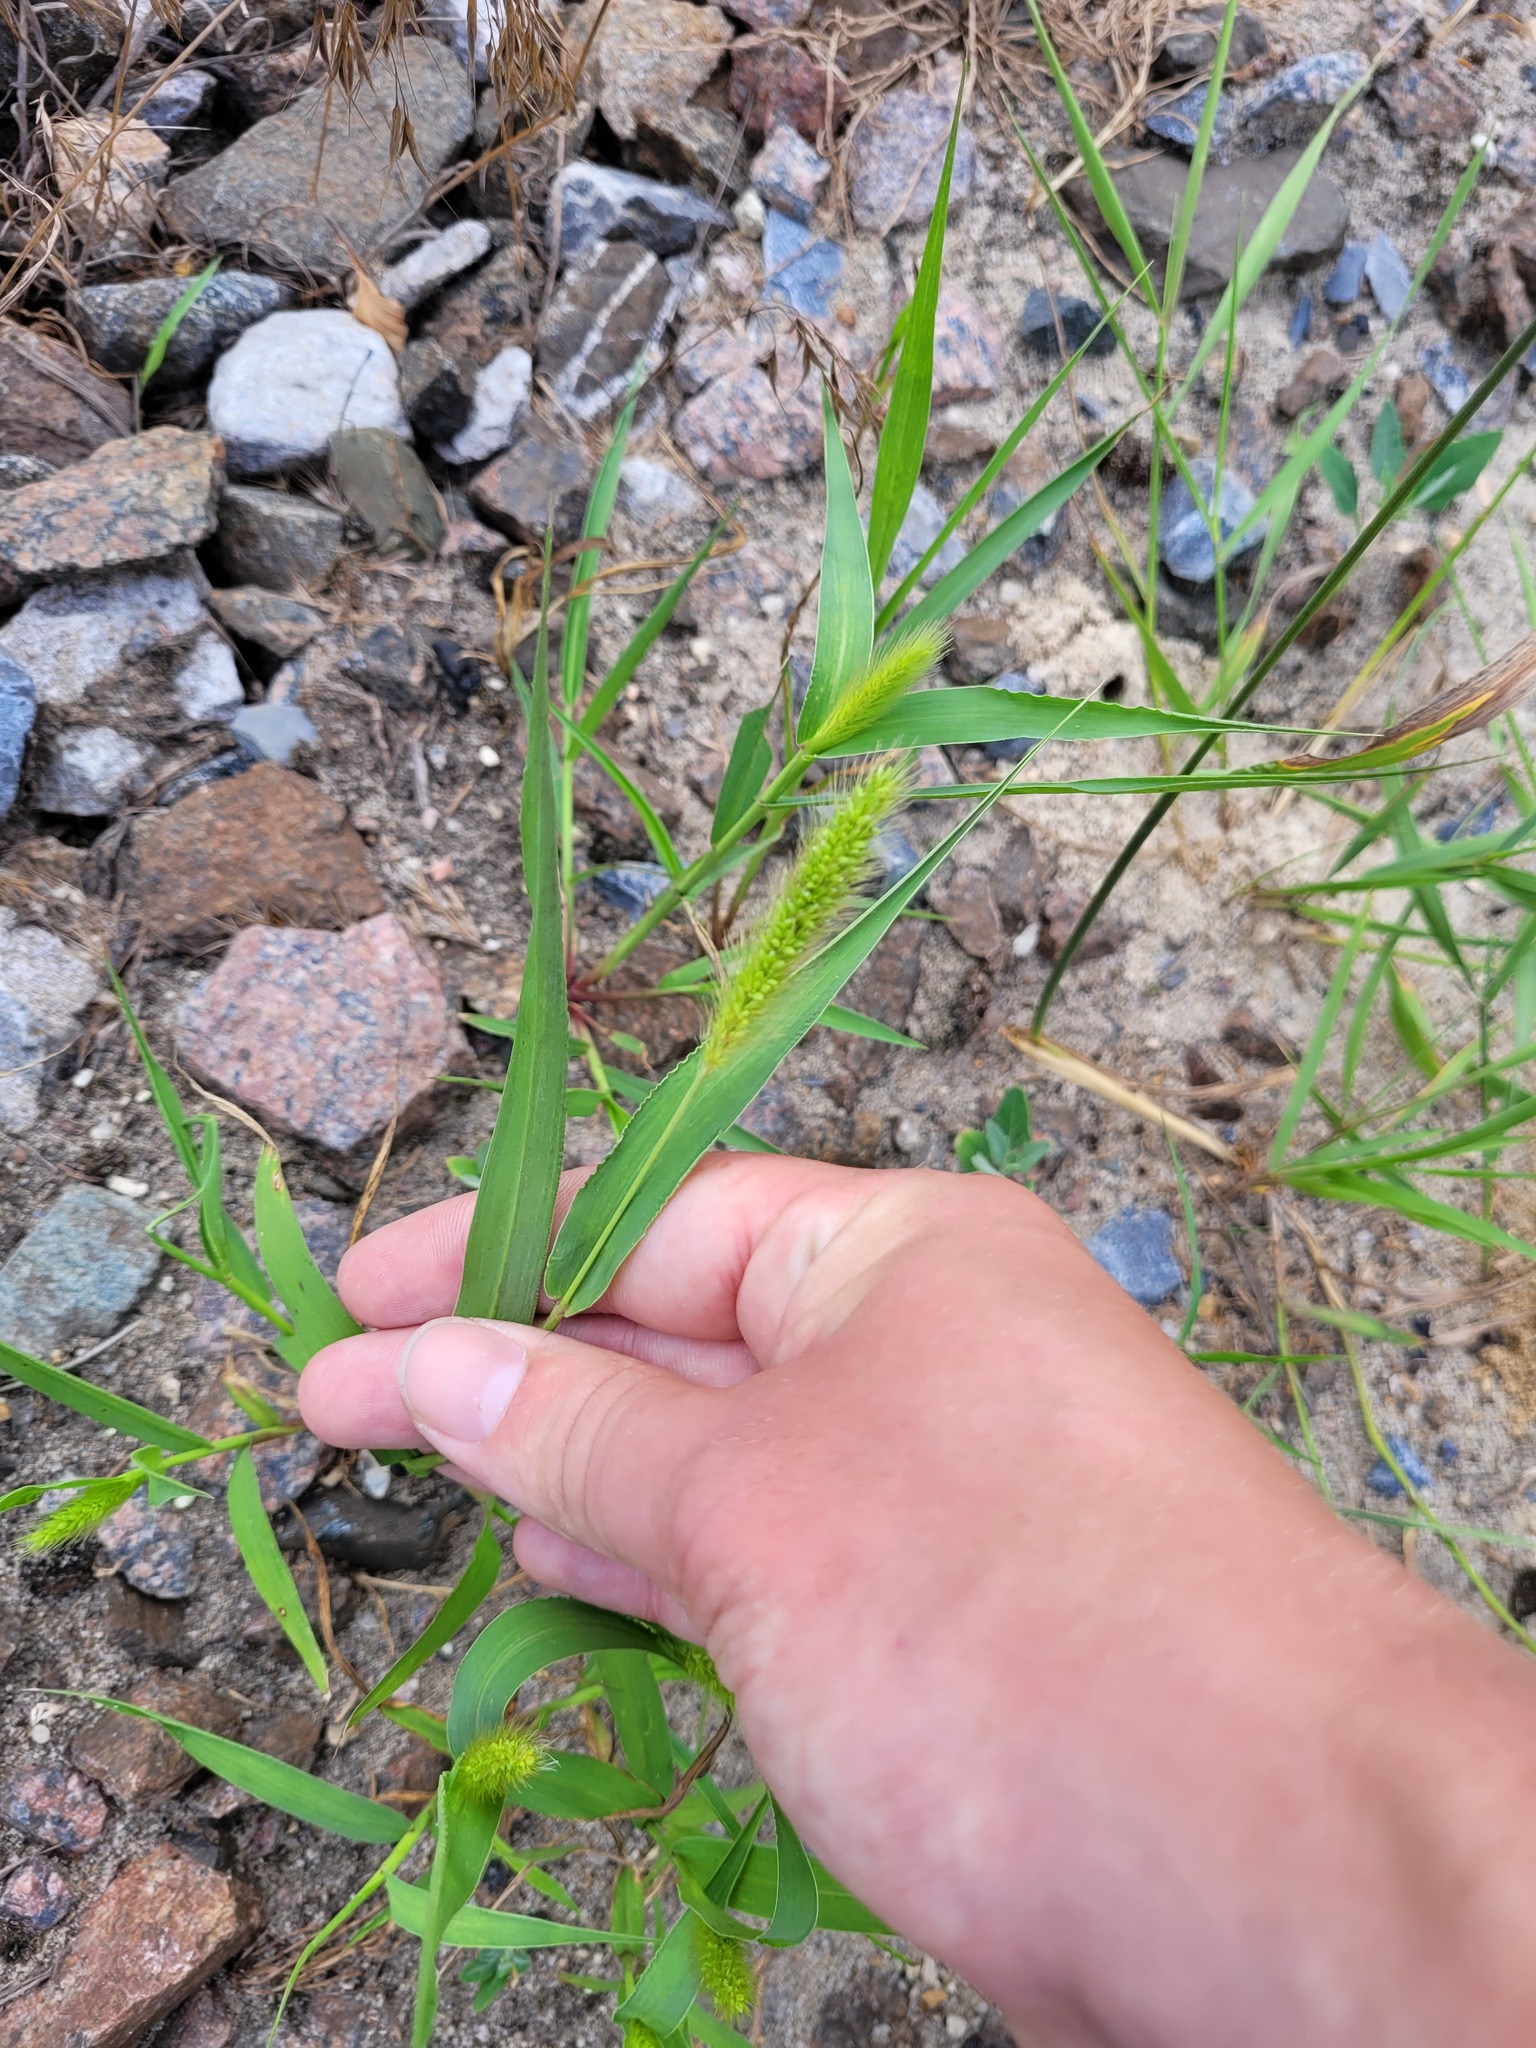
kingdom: Plantae
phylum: Tracheophyta
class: Liliopsida
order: Poales
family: Poaceae
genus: Setaria
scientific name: Setaria viridis
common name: Green bristlegrass
